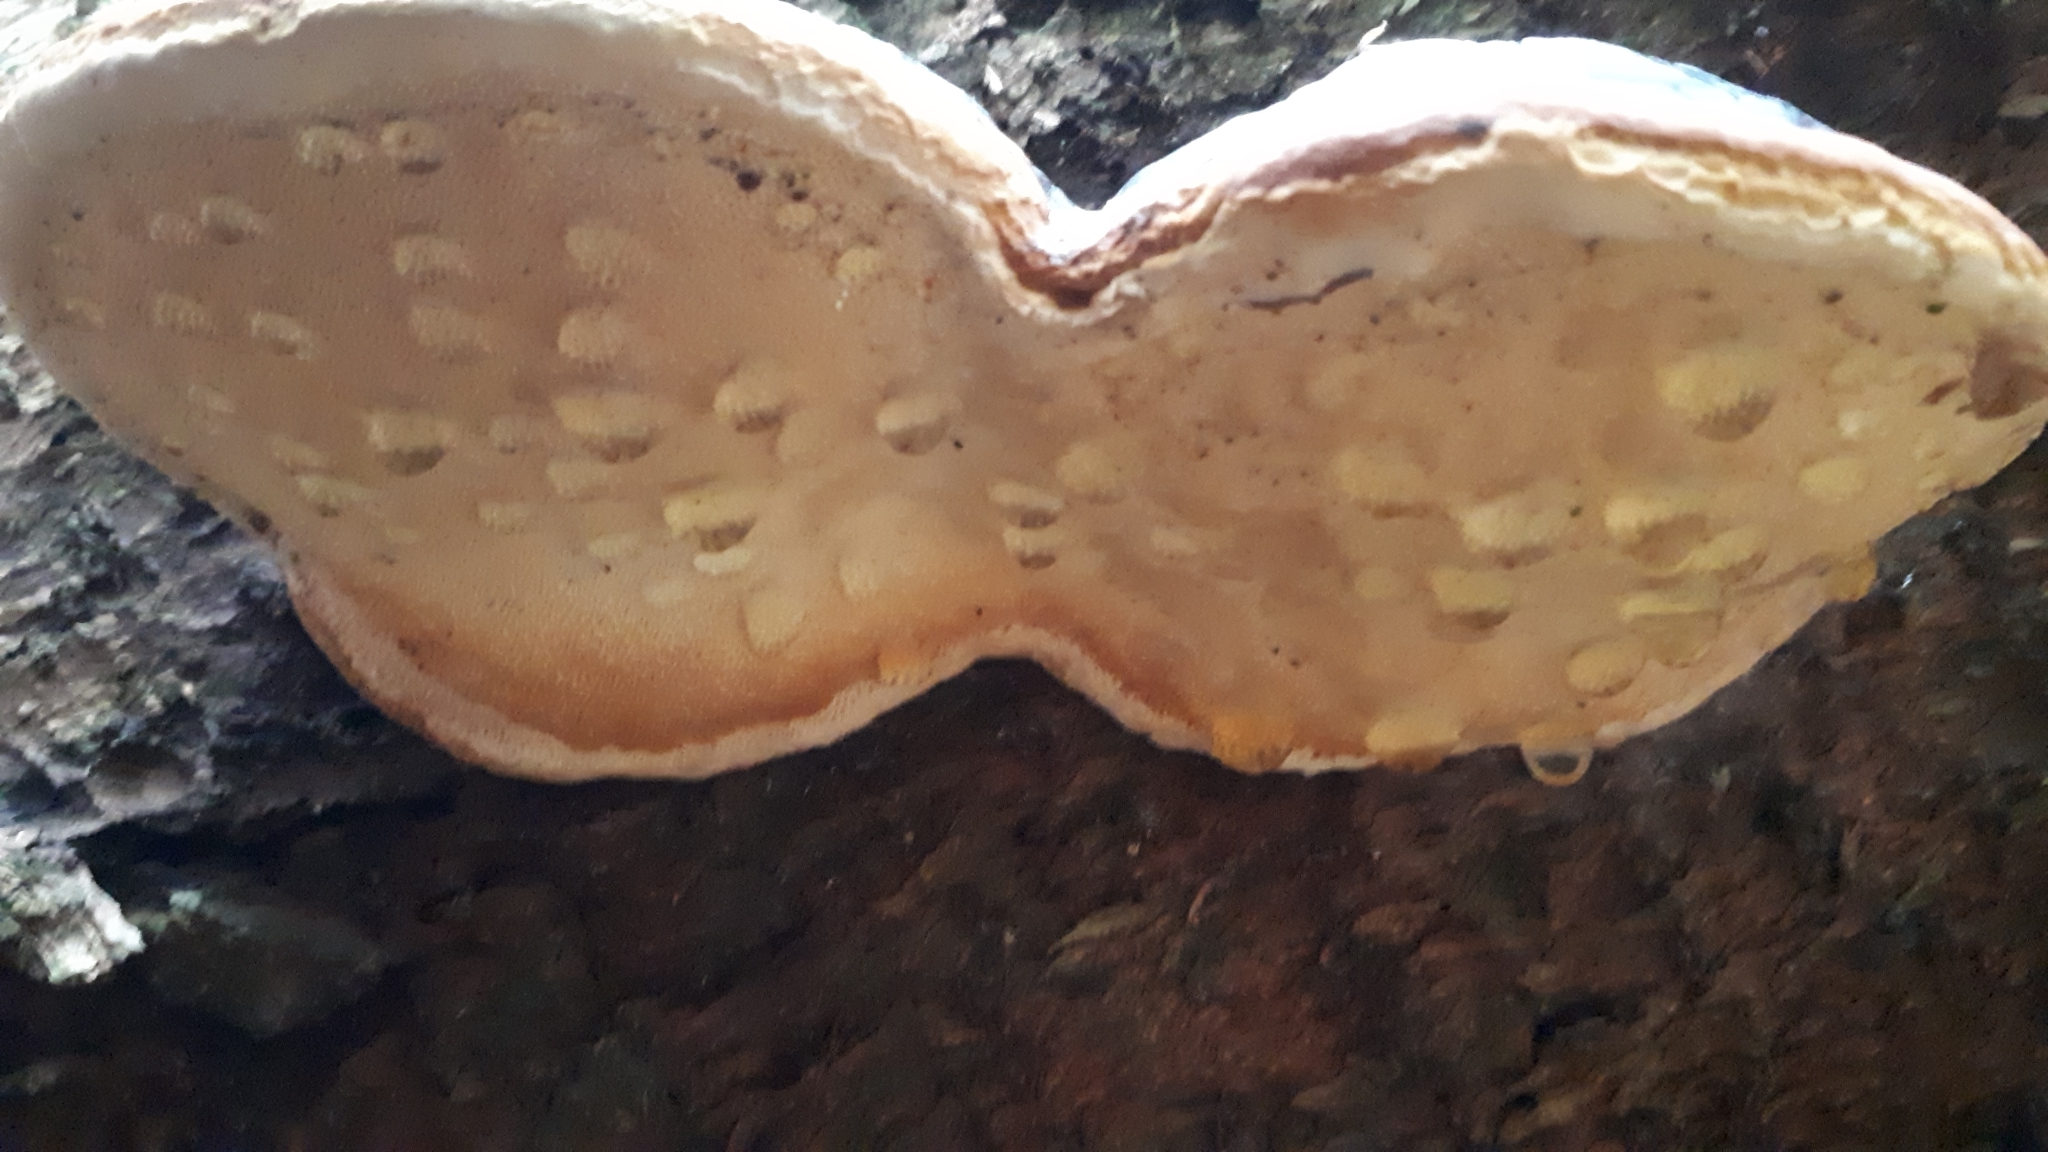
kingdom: Fungi
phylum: Basidiomycota
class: Agaricomycetes
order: Polyporales
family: Fomitopsidaceae
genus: Fomitopsis
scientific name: Fomitopsis pinicola
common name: Red-belted bracket
